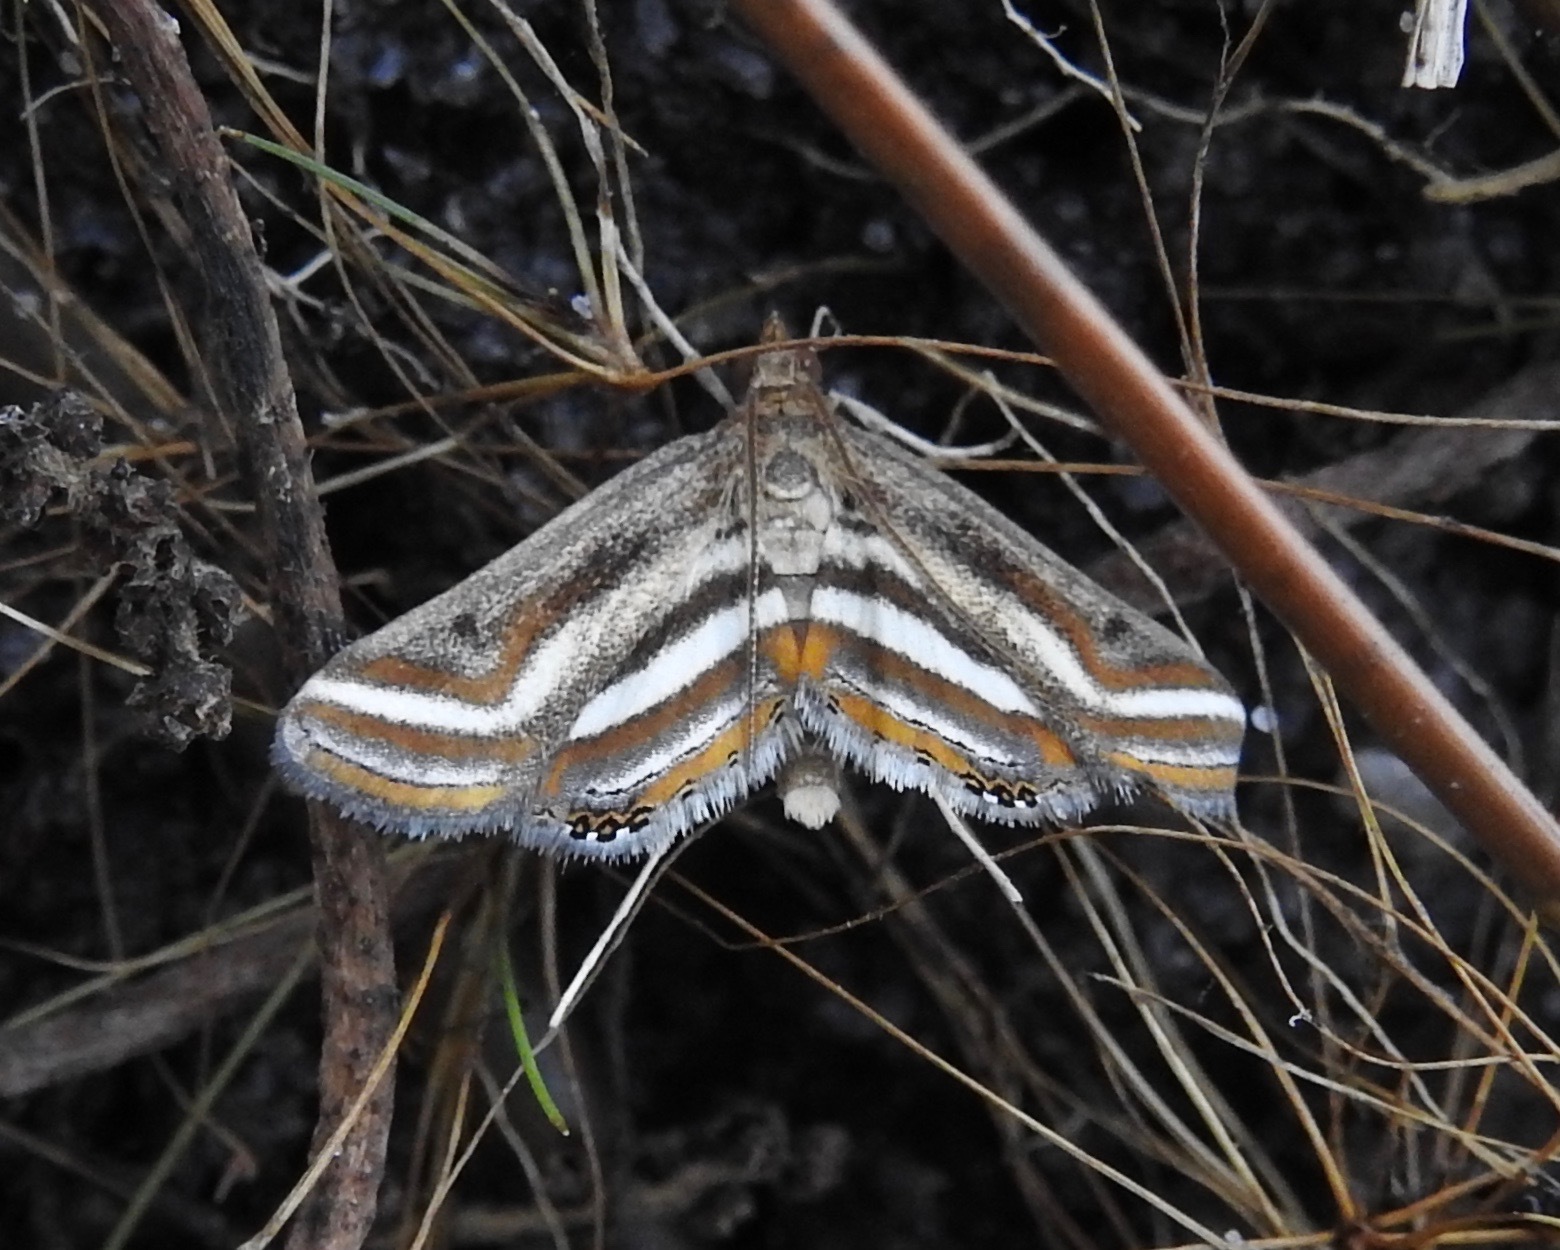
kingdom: Animalia
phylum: Arthropoda
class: Insecta
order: Lepidoptera
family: Crambidae
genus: Parapoynx
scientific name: Parapoynx seminealis
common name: Floating-heart waterlily leafcutter
